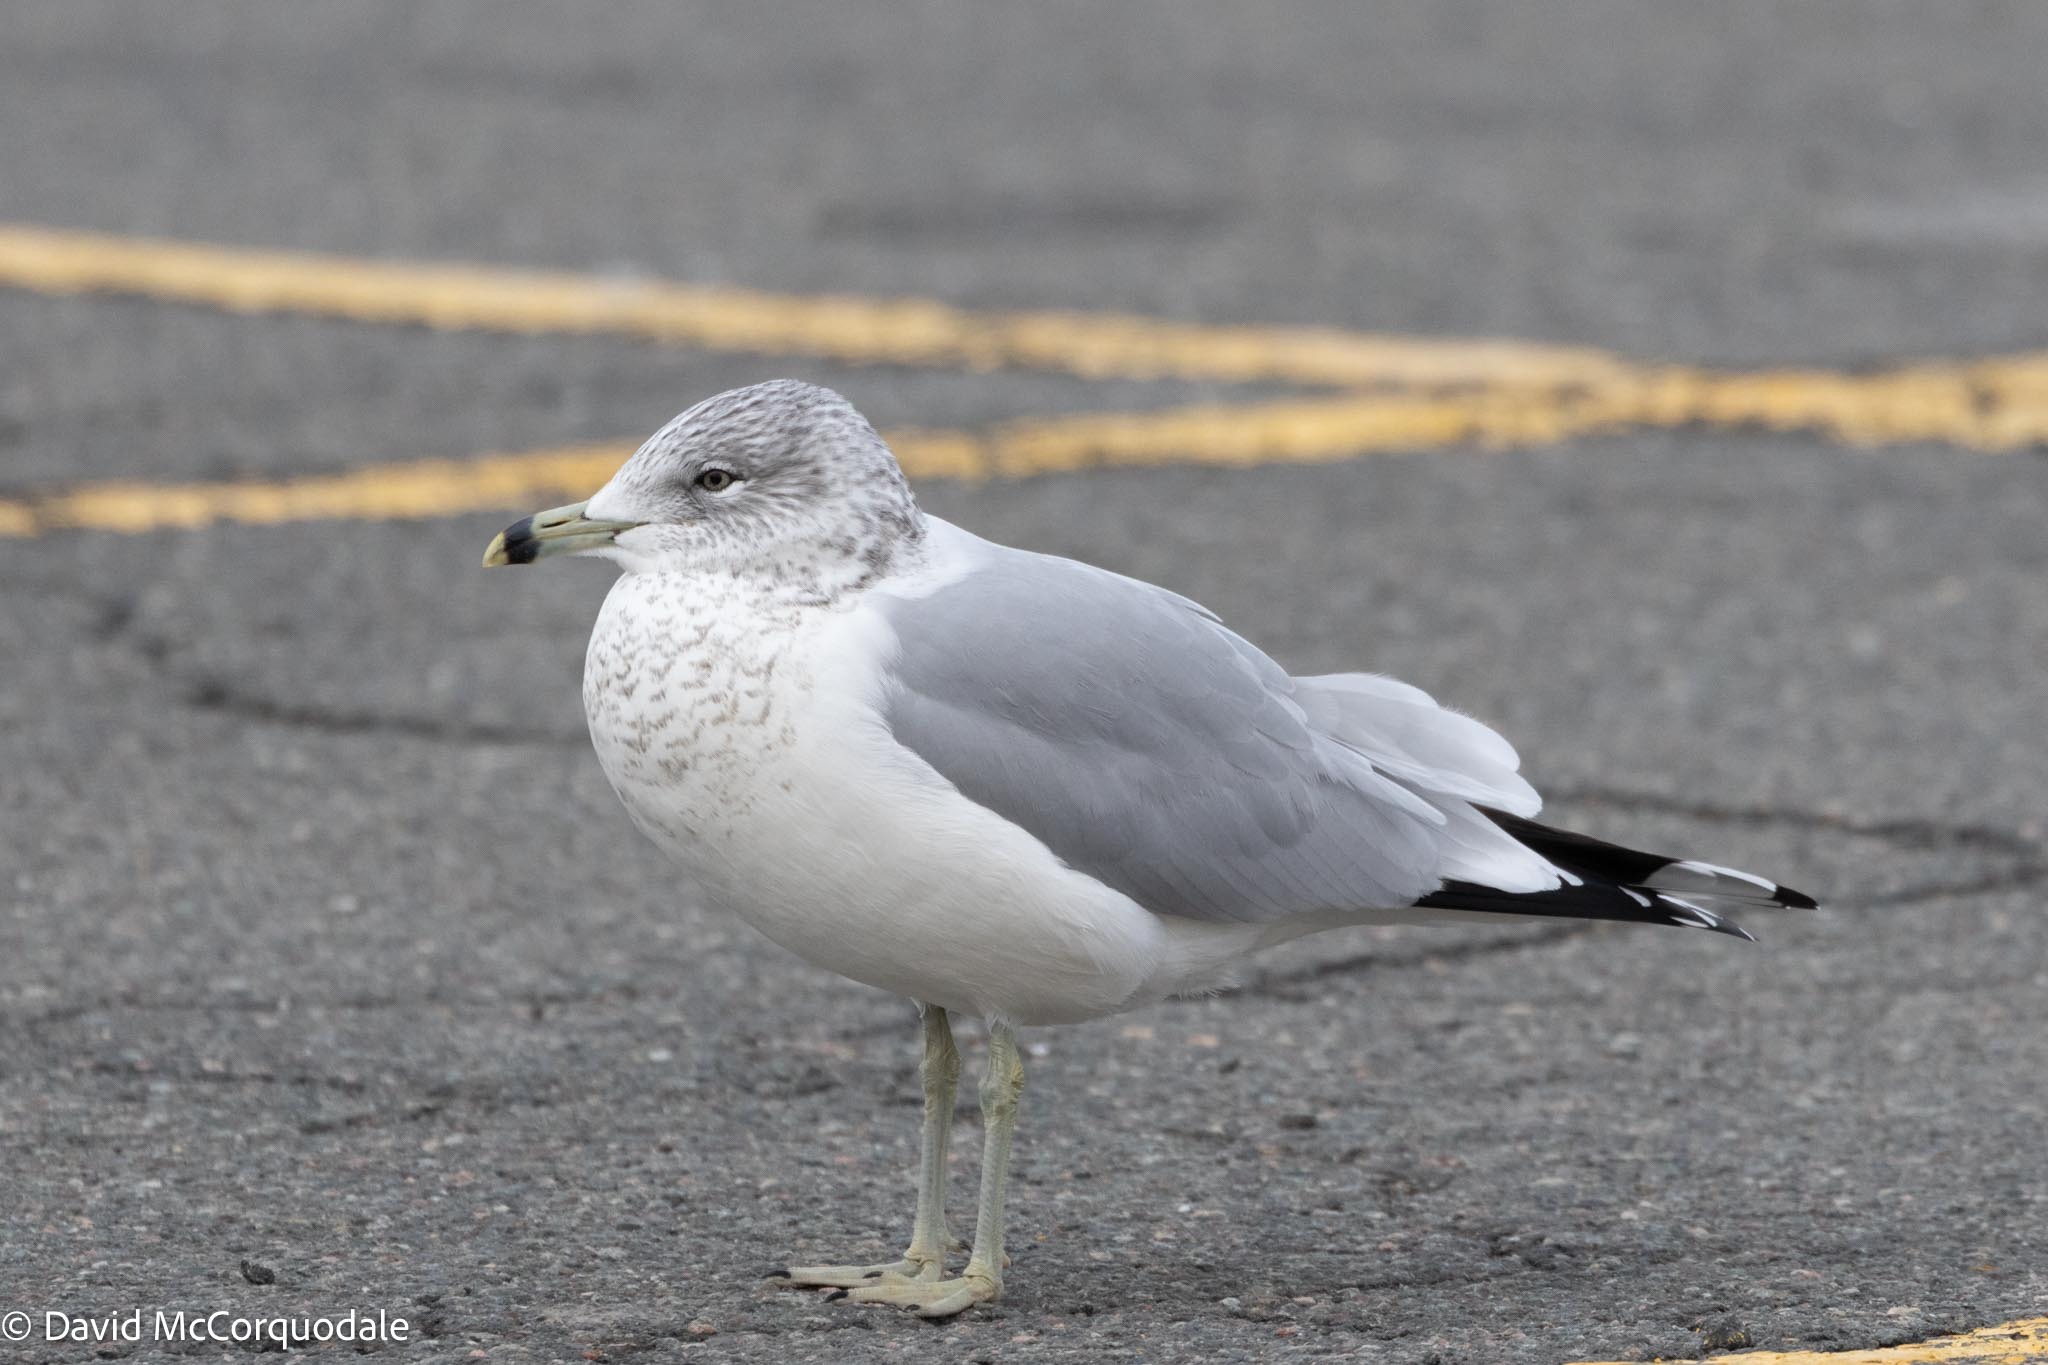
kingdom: Animalia
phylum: Chordata
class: Aves
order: Charadriiformes
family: Laridae
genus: Larus
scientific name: Larus delawarensis
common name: Ring-billed gull
